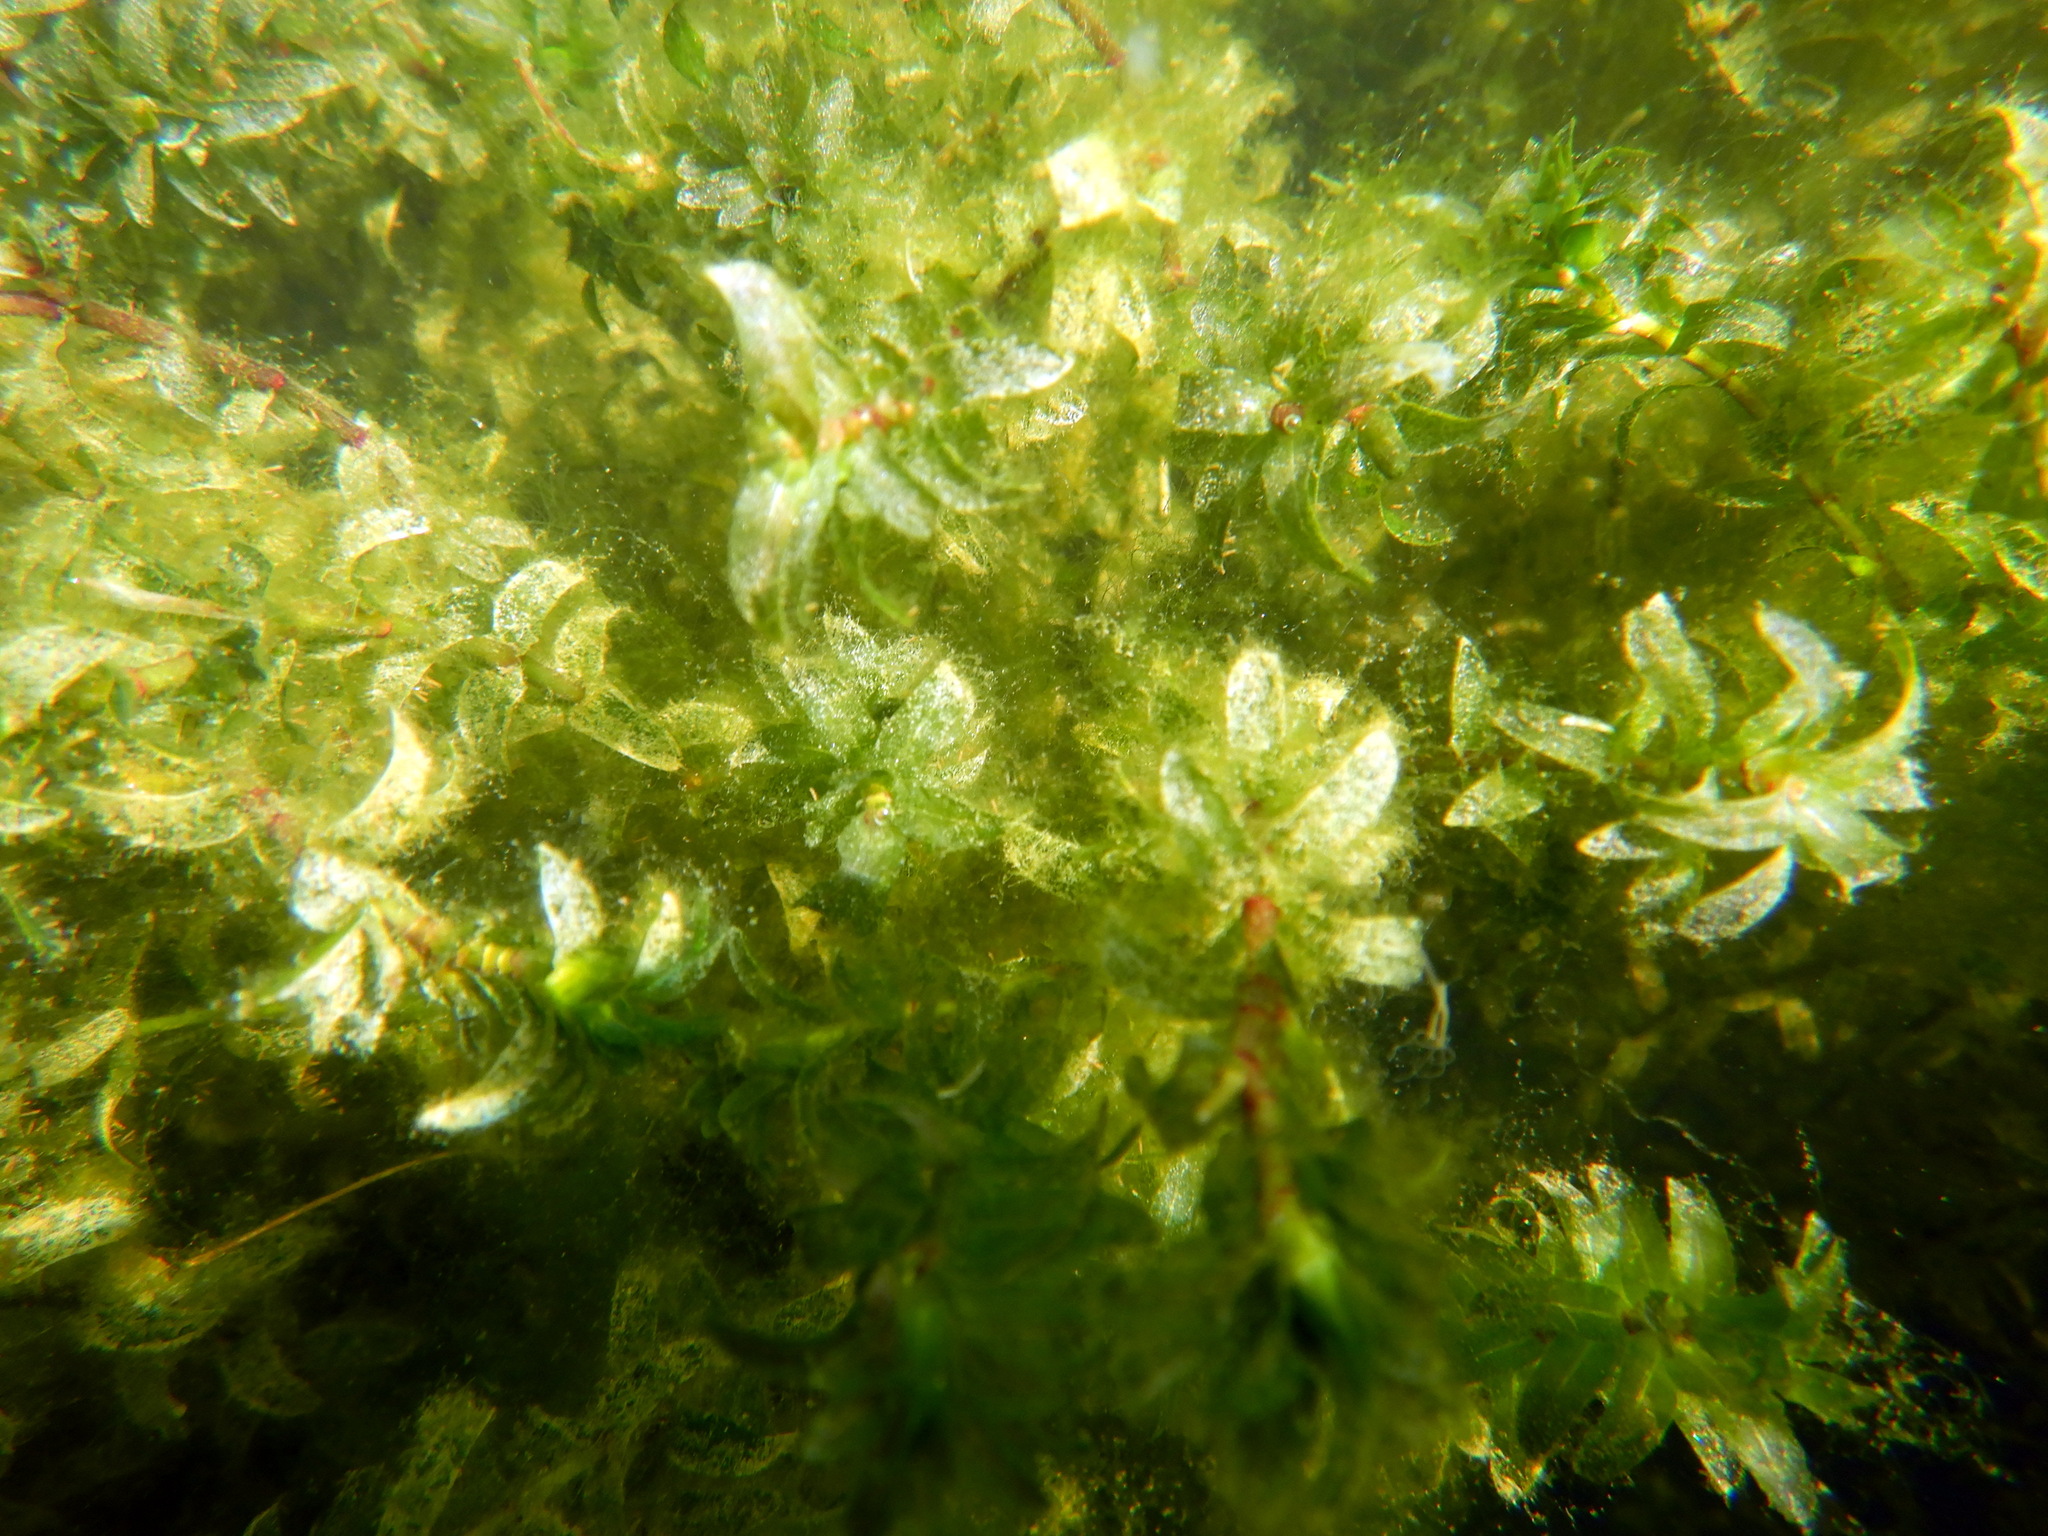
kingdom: Plantae
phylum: Tracheophyta
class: Liliopsida
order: Alismatales
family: Hydrocharitaceae
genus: Elodea
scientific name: Elodea canadensis
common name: Canadian waterweed
